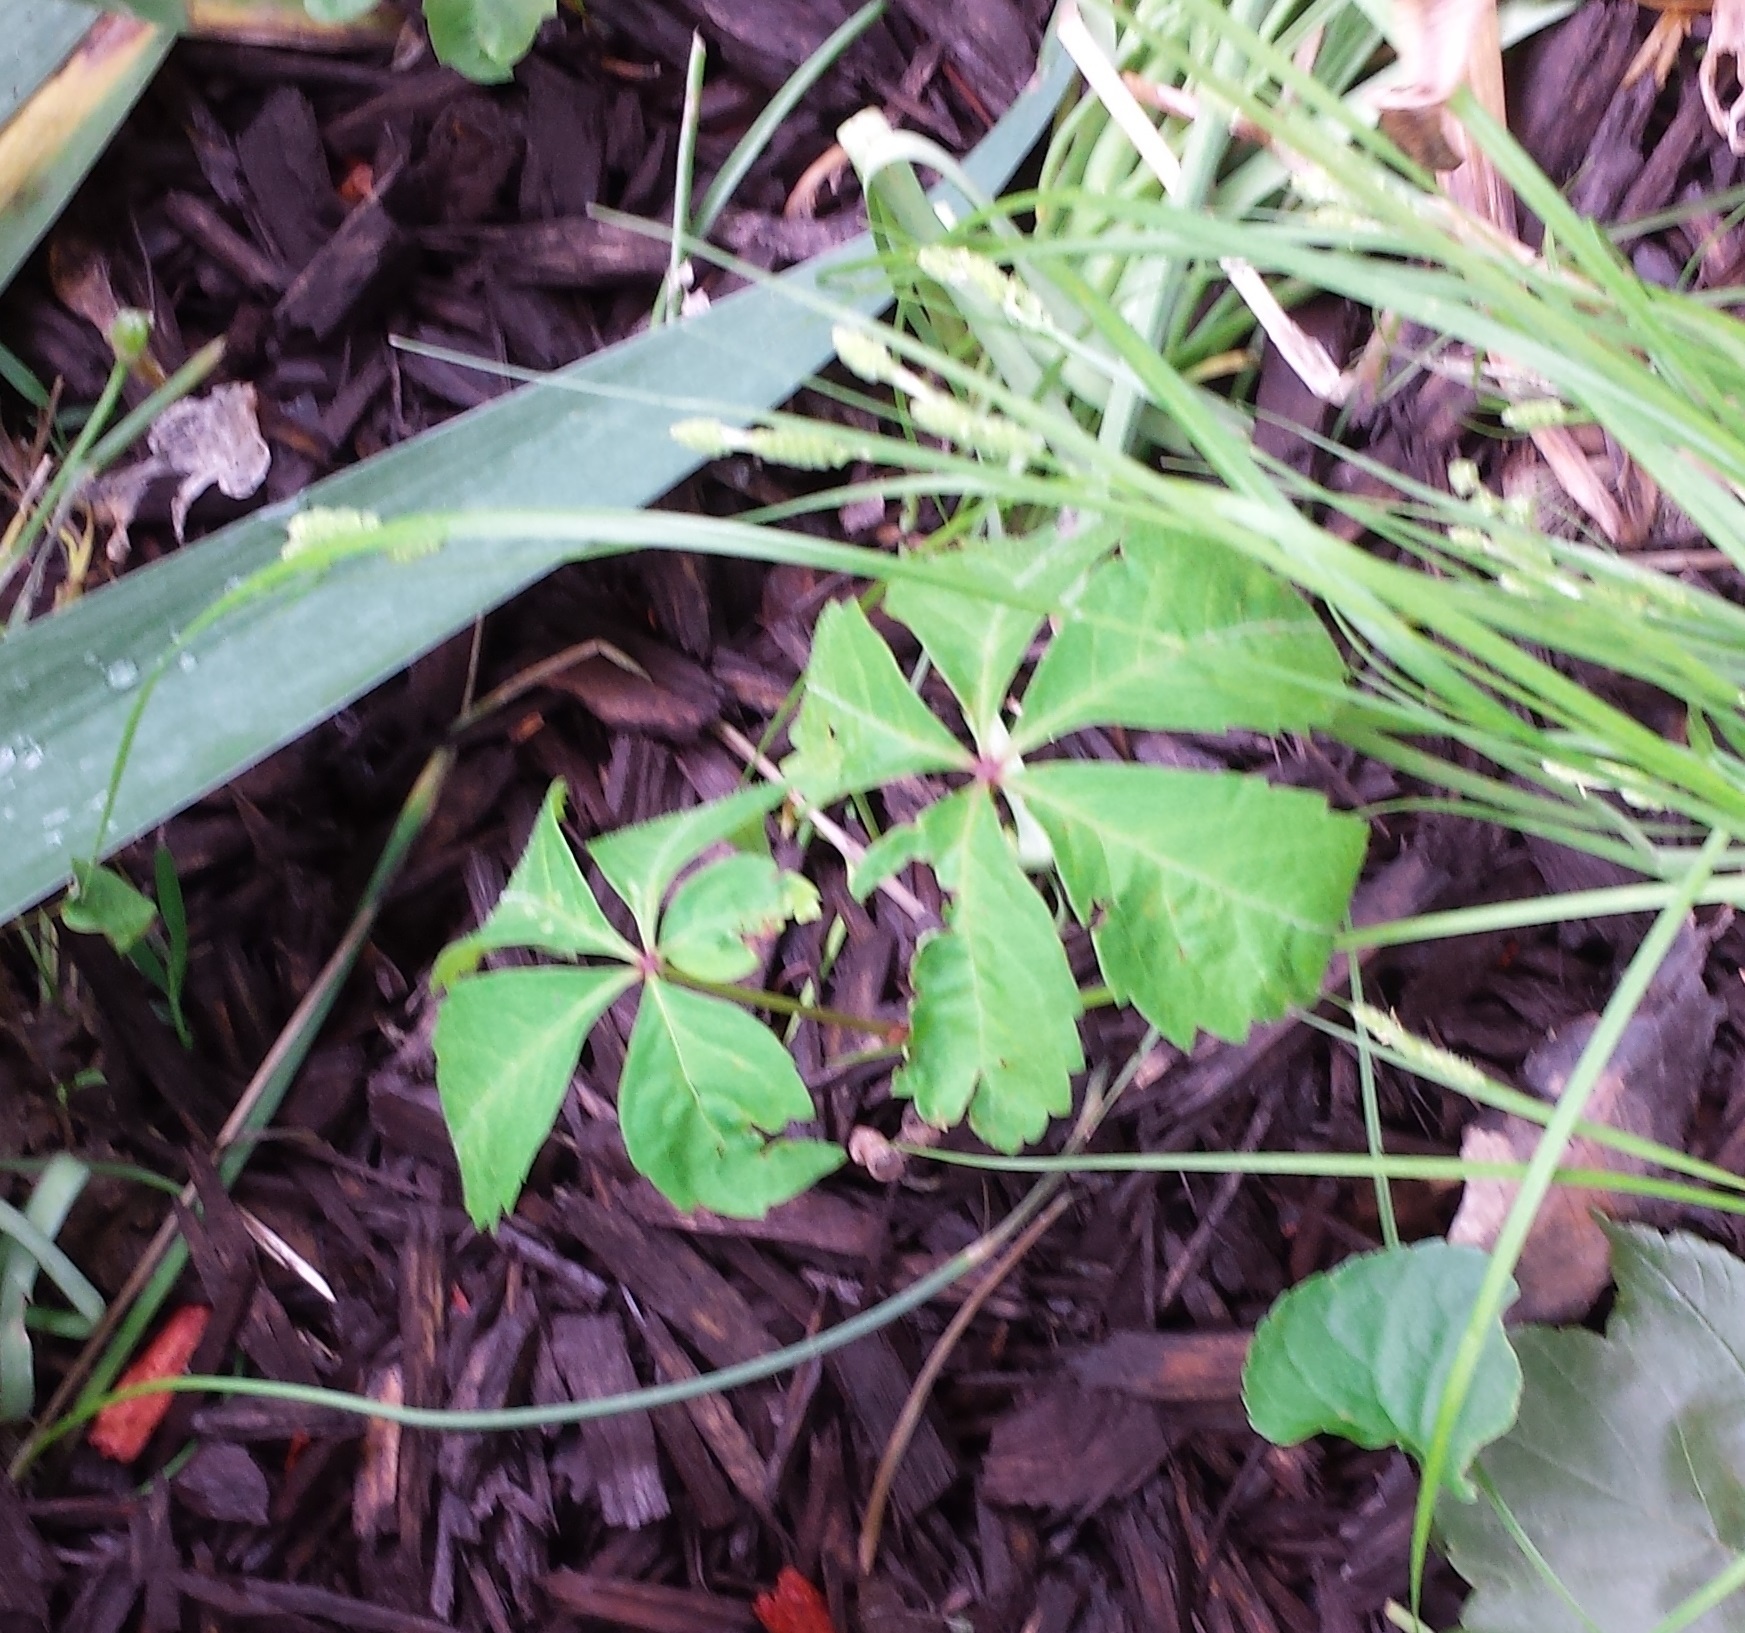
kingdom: Plantae
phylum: Tracheophyta
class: Magnoliopsida
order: Vitales
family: Vitaceae
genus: Parthenocissus
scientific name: Parthenocissus quinquefolia
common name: Virginia-creeper
